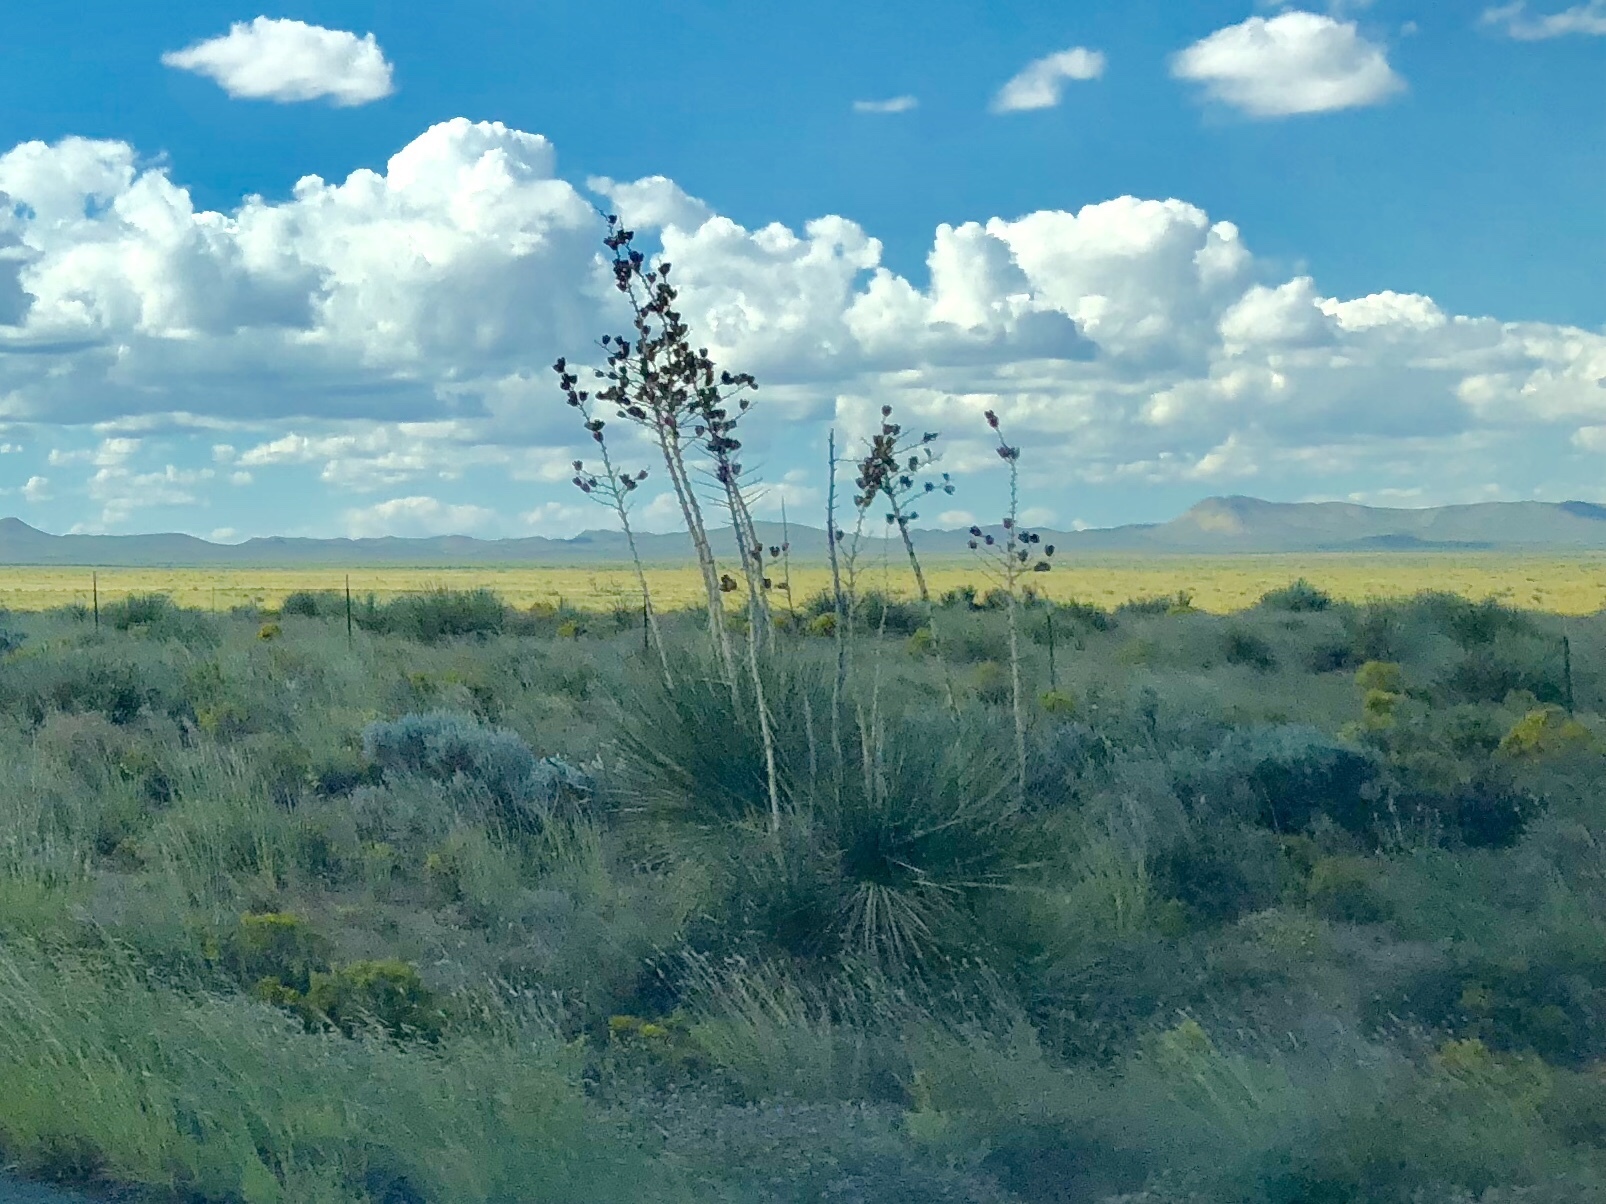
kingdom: Plantae
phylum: Tracheophyta
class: Liliopsida
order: Asparagales
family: Asparagaceae
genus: Yucca
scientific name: Yucca elata
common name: Palmella
